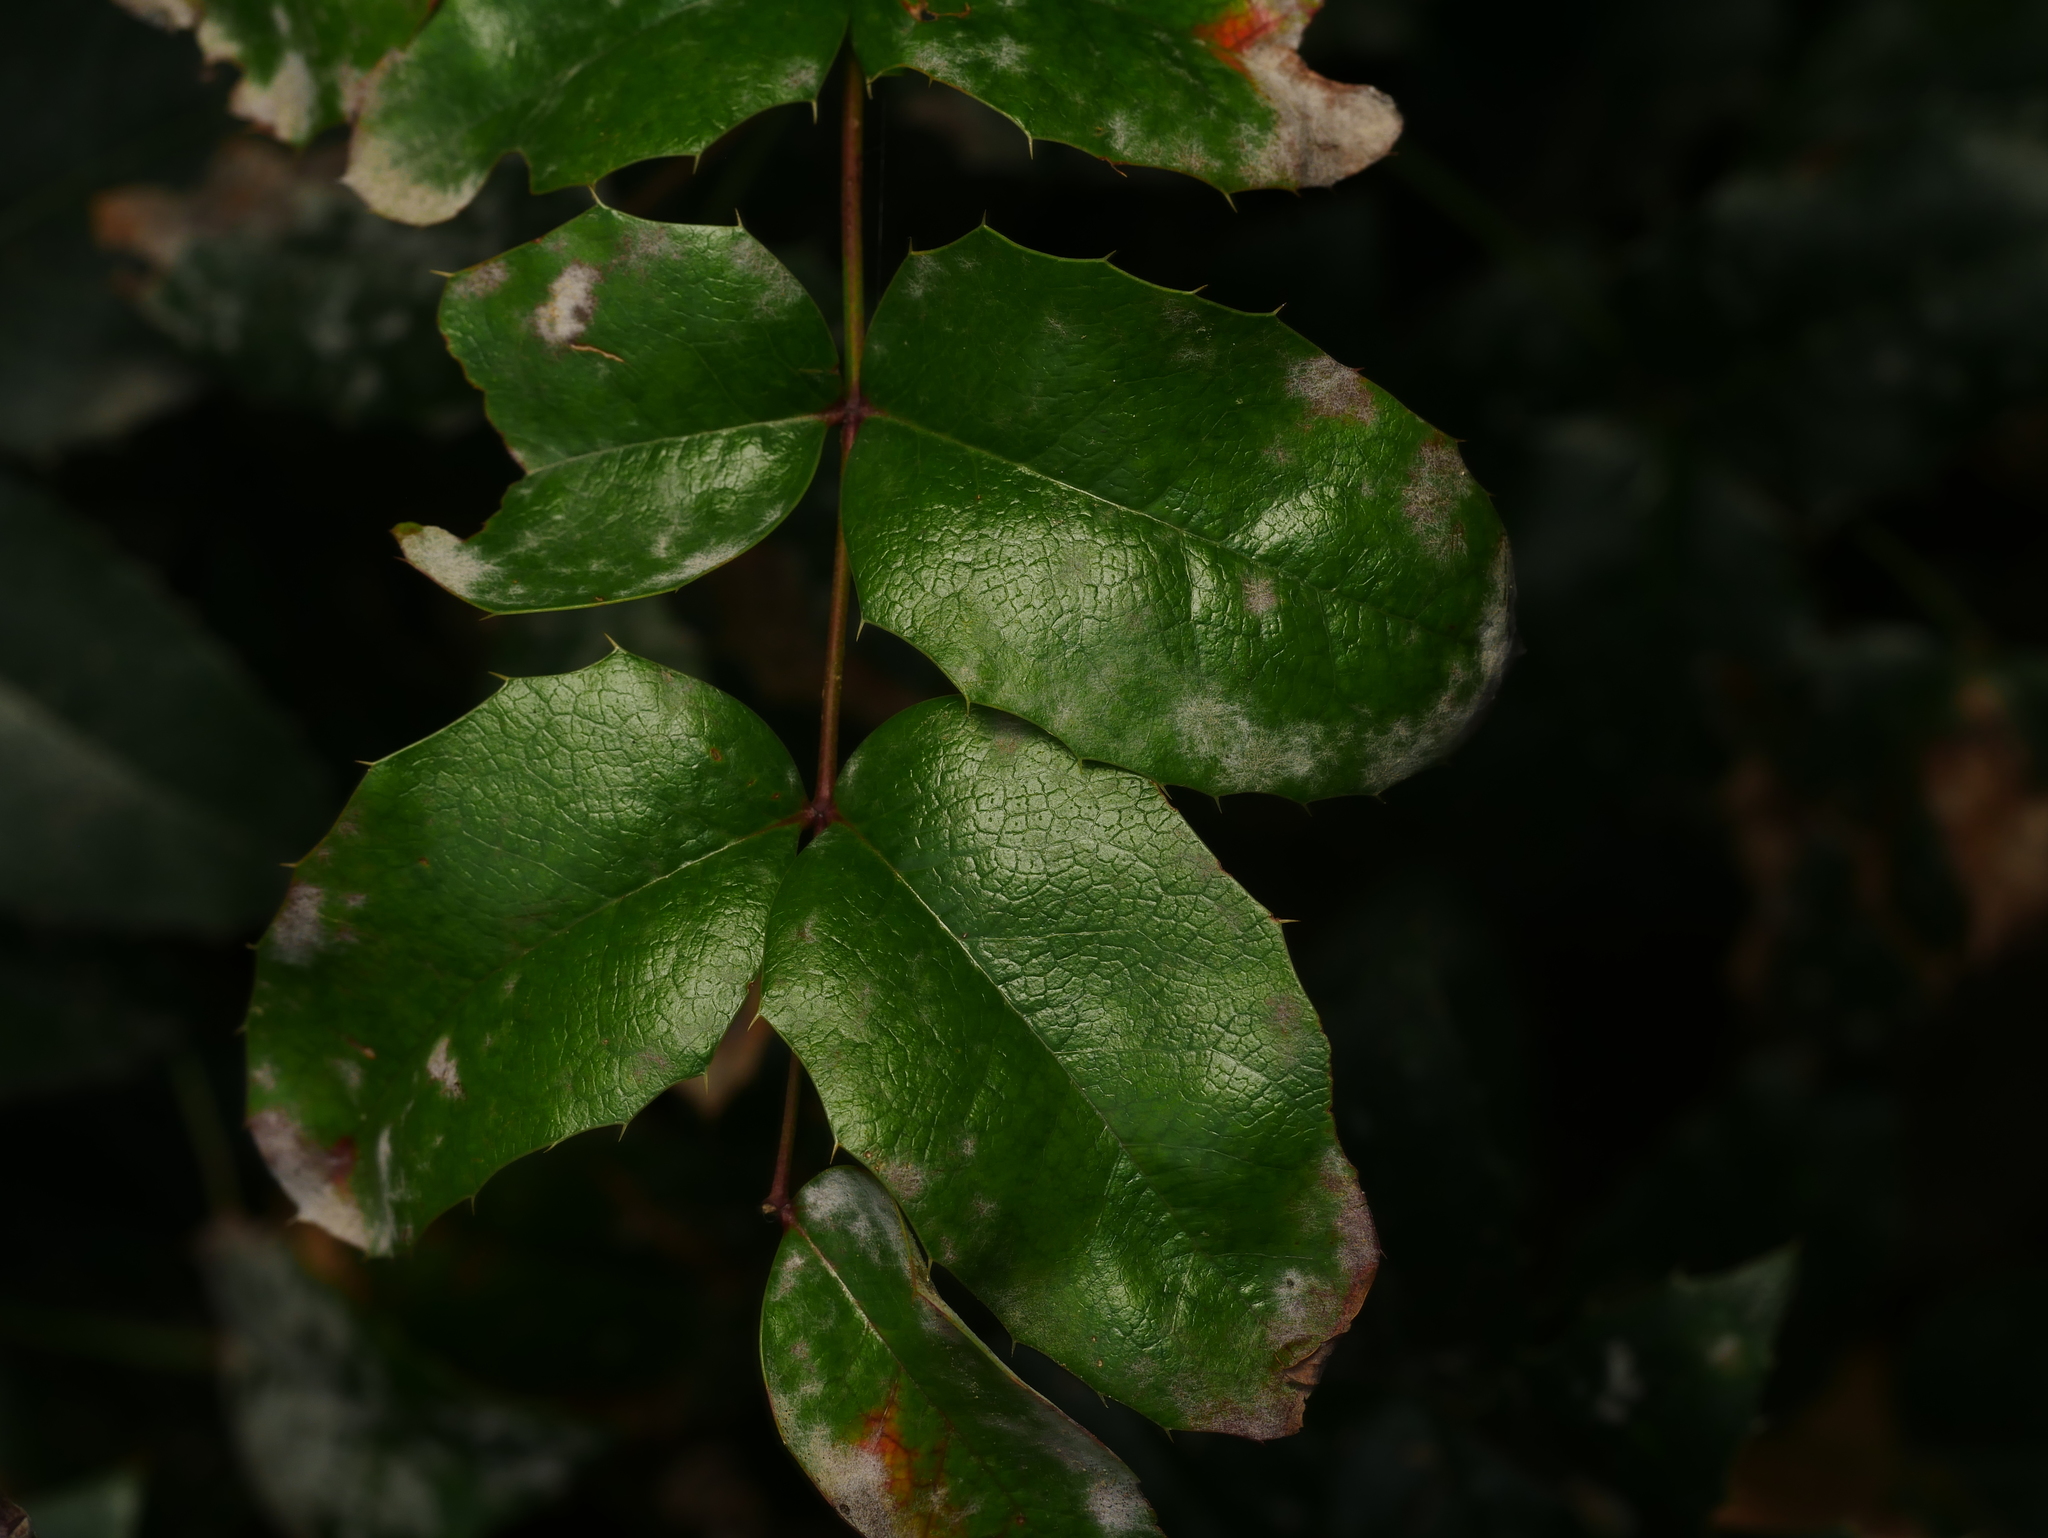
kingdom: Plantae
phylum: Tracheophyta
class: Magnoliopsida
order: Ranunculales
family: Berberidaceae
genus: Mahonia
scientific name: Mahonia aquifolium
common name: Oregon-grape
